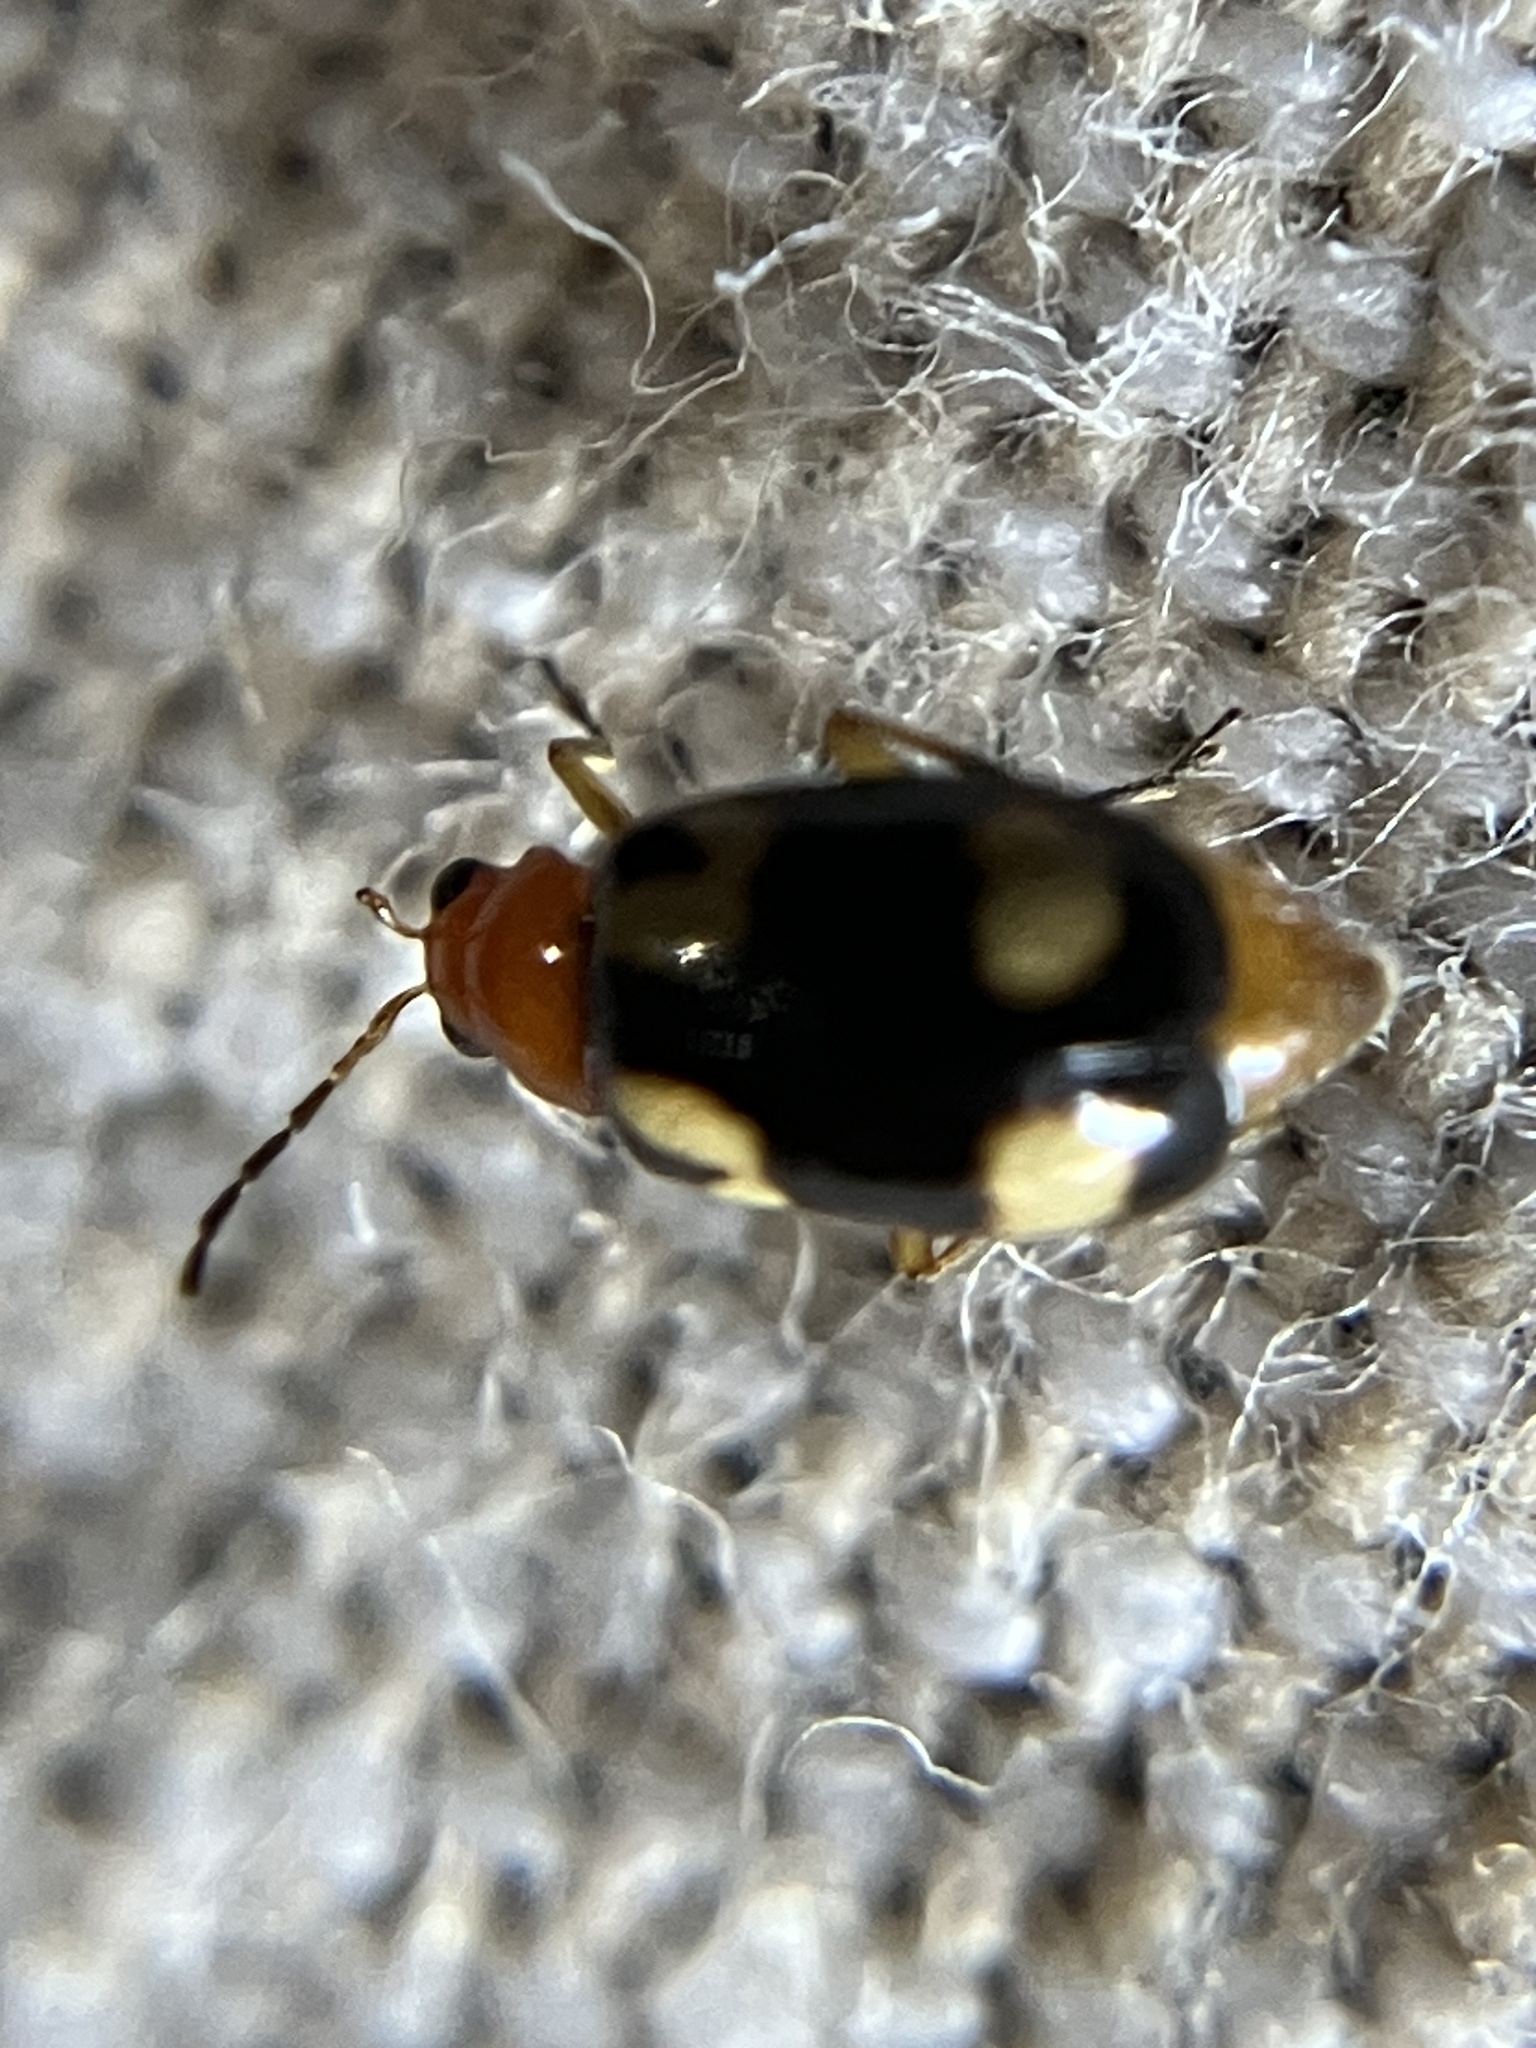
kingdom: Animalia
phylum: Arthropoda
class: Insecta
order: Coleoptera
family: Chrysomelidae
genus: Monolepta
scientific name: Monolepta signata
